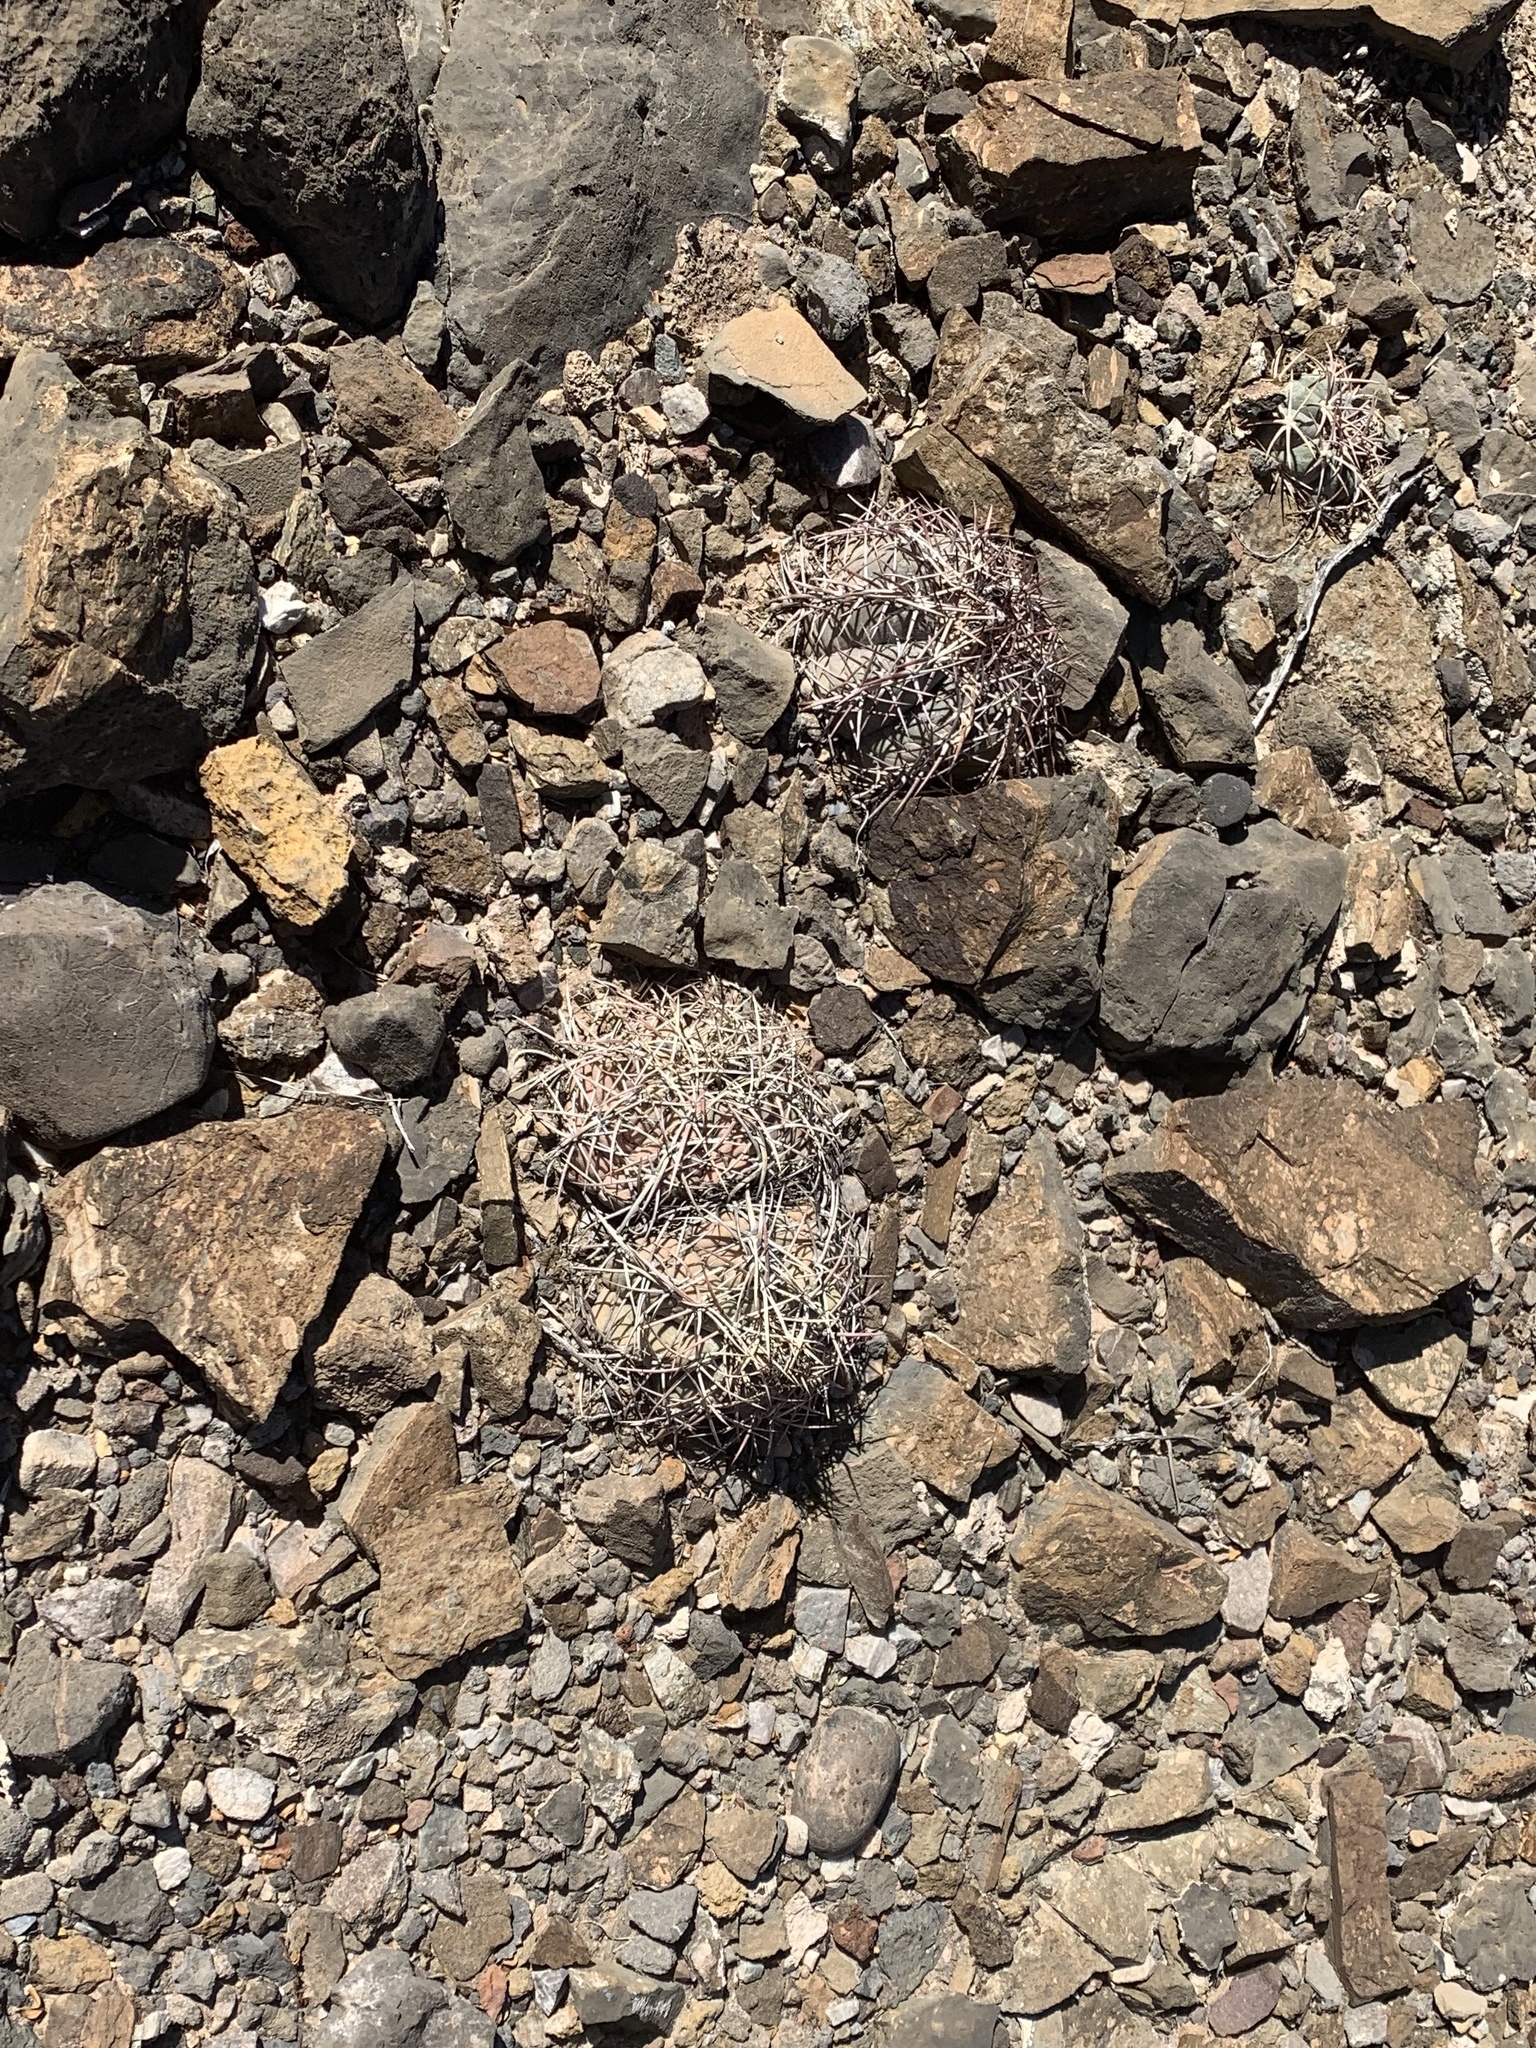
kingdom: Plantae
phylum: Tracheophyta
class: Magnoliopsida
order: Caryophyllales
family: Cactaceae
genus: Echinocactus
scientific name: Echinocactus horizonthalonius
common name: Devilshead
